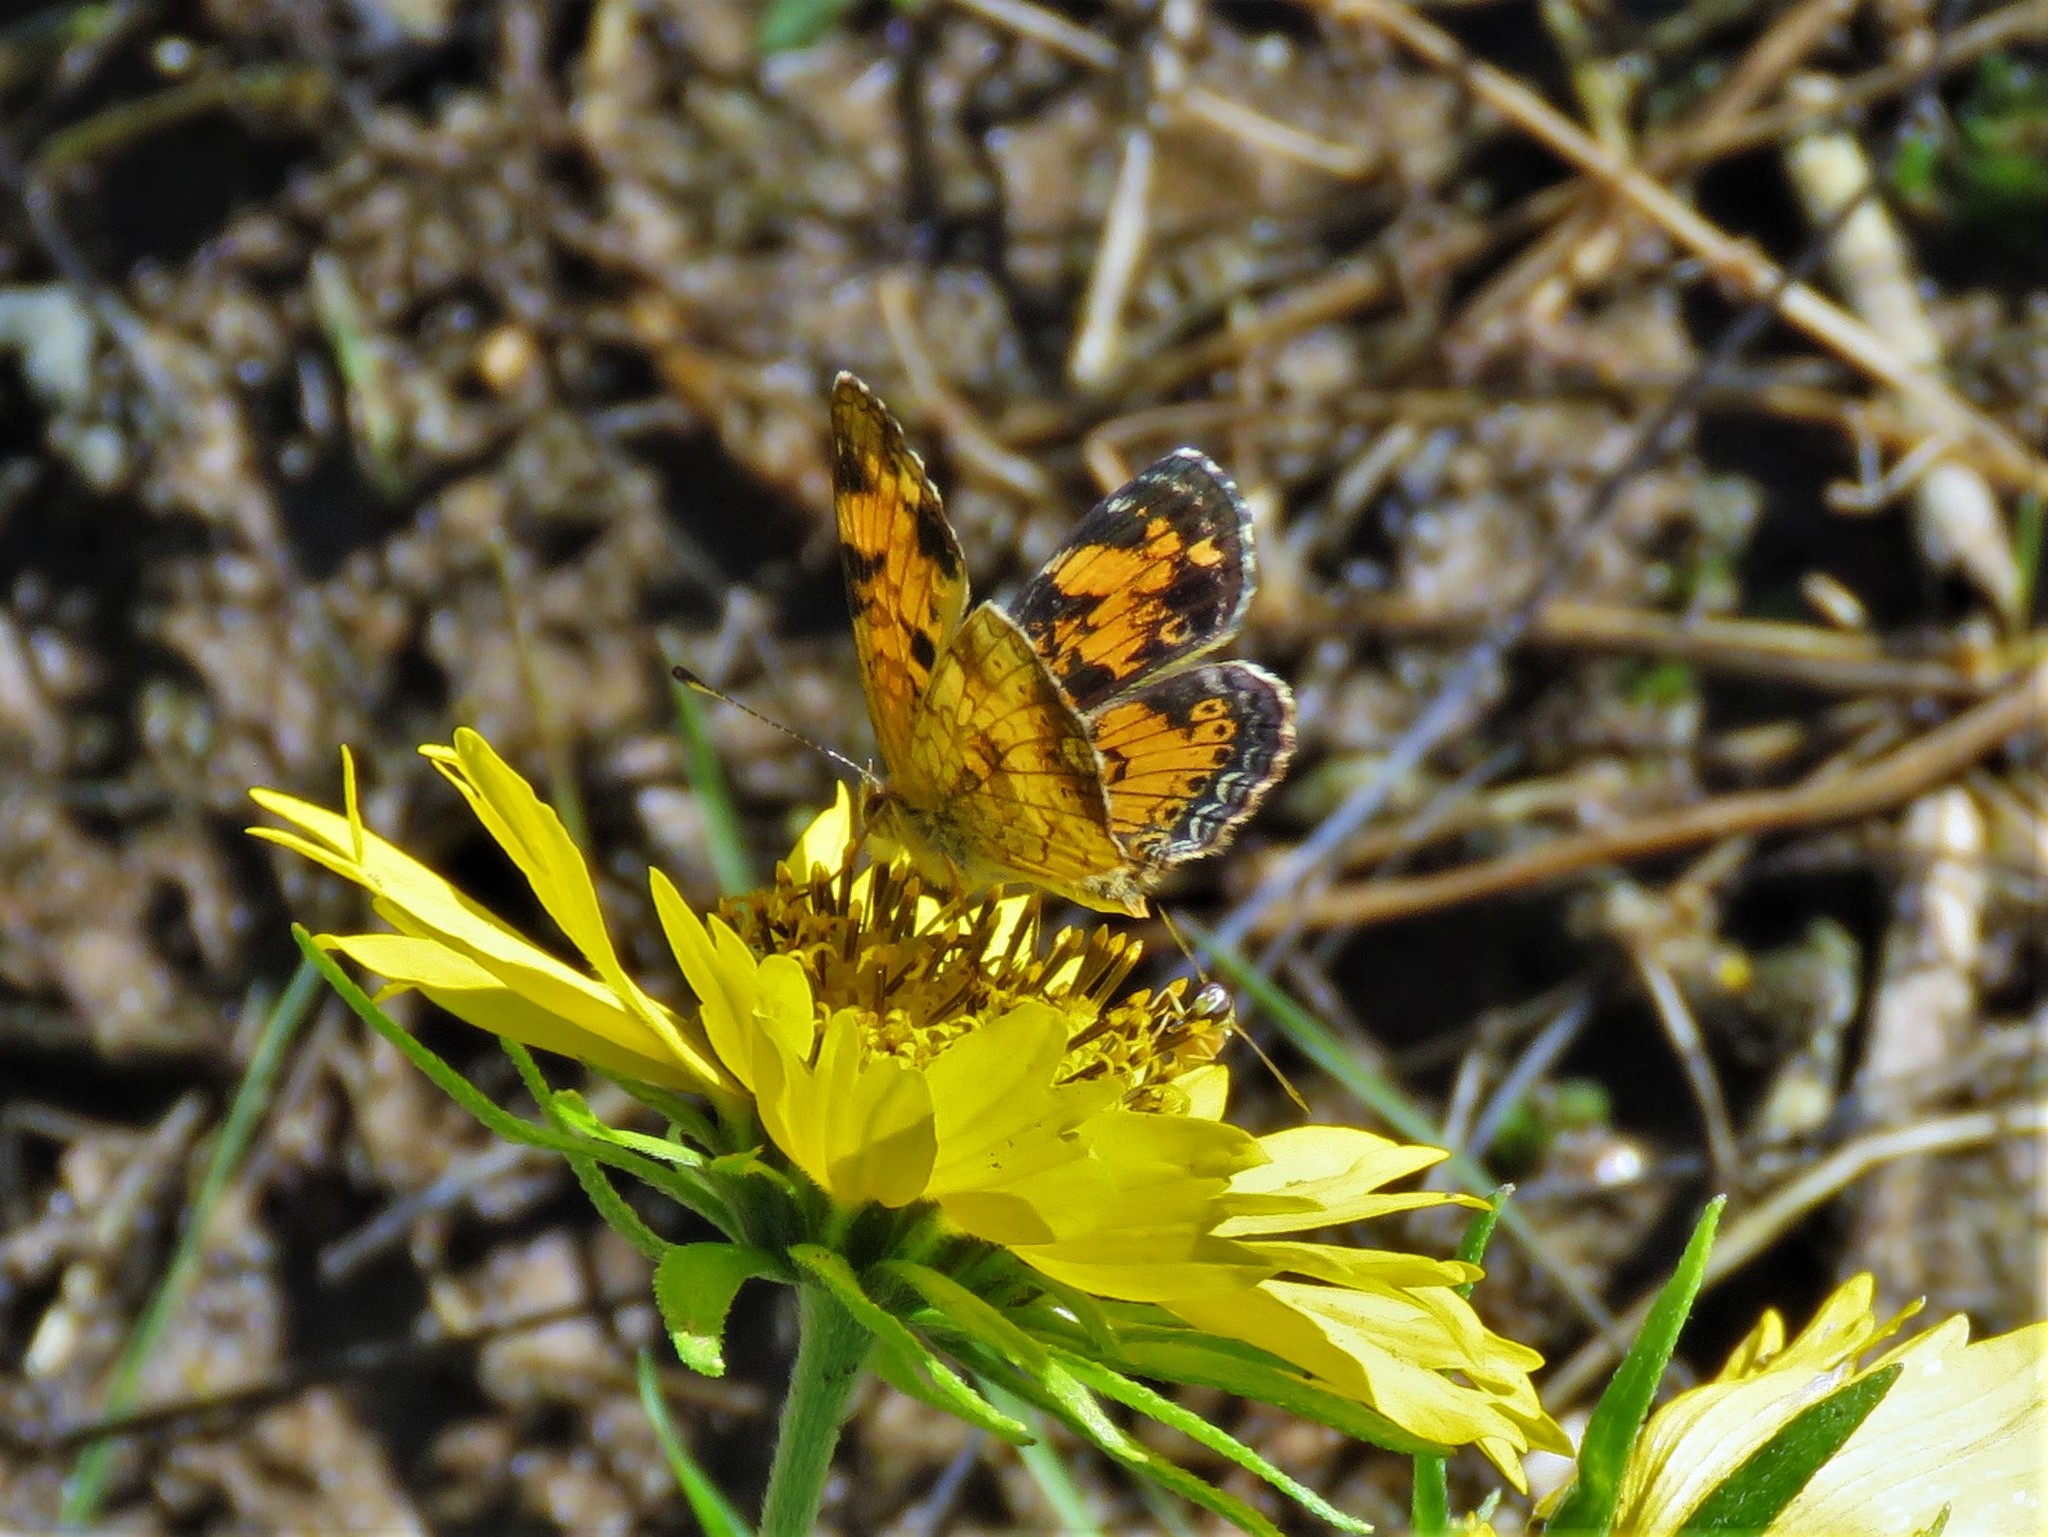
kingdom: Animalia
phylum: Arthropoda
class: Insecta
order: Lepidoptera
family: Nymphalidae
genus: Phyciodes
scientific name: Phyciodes tharos
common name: Pearl crescent
